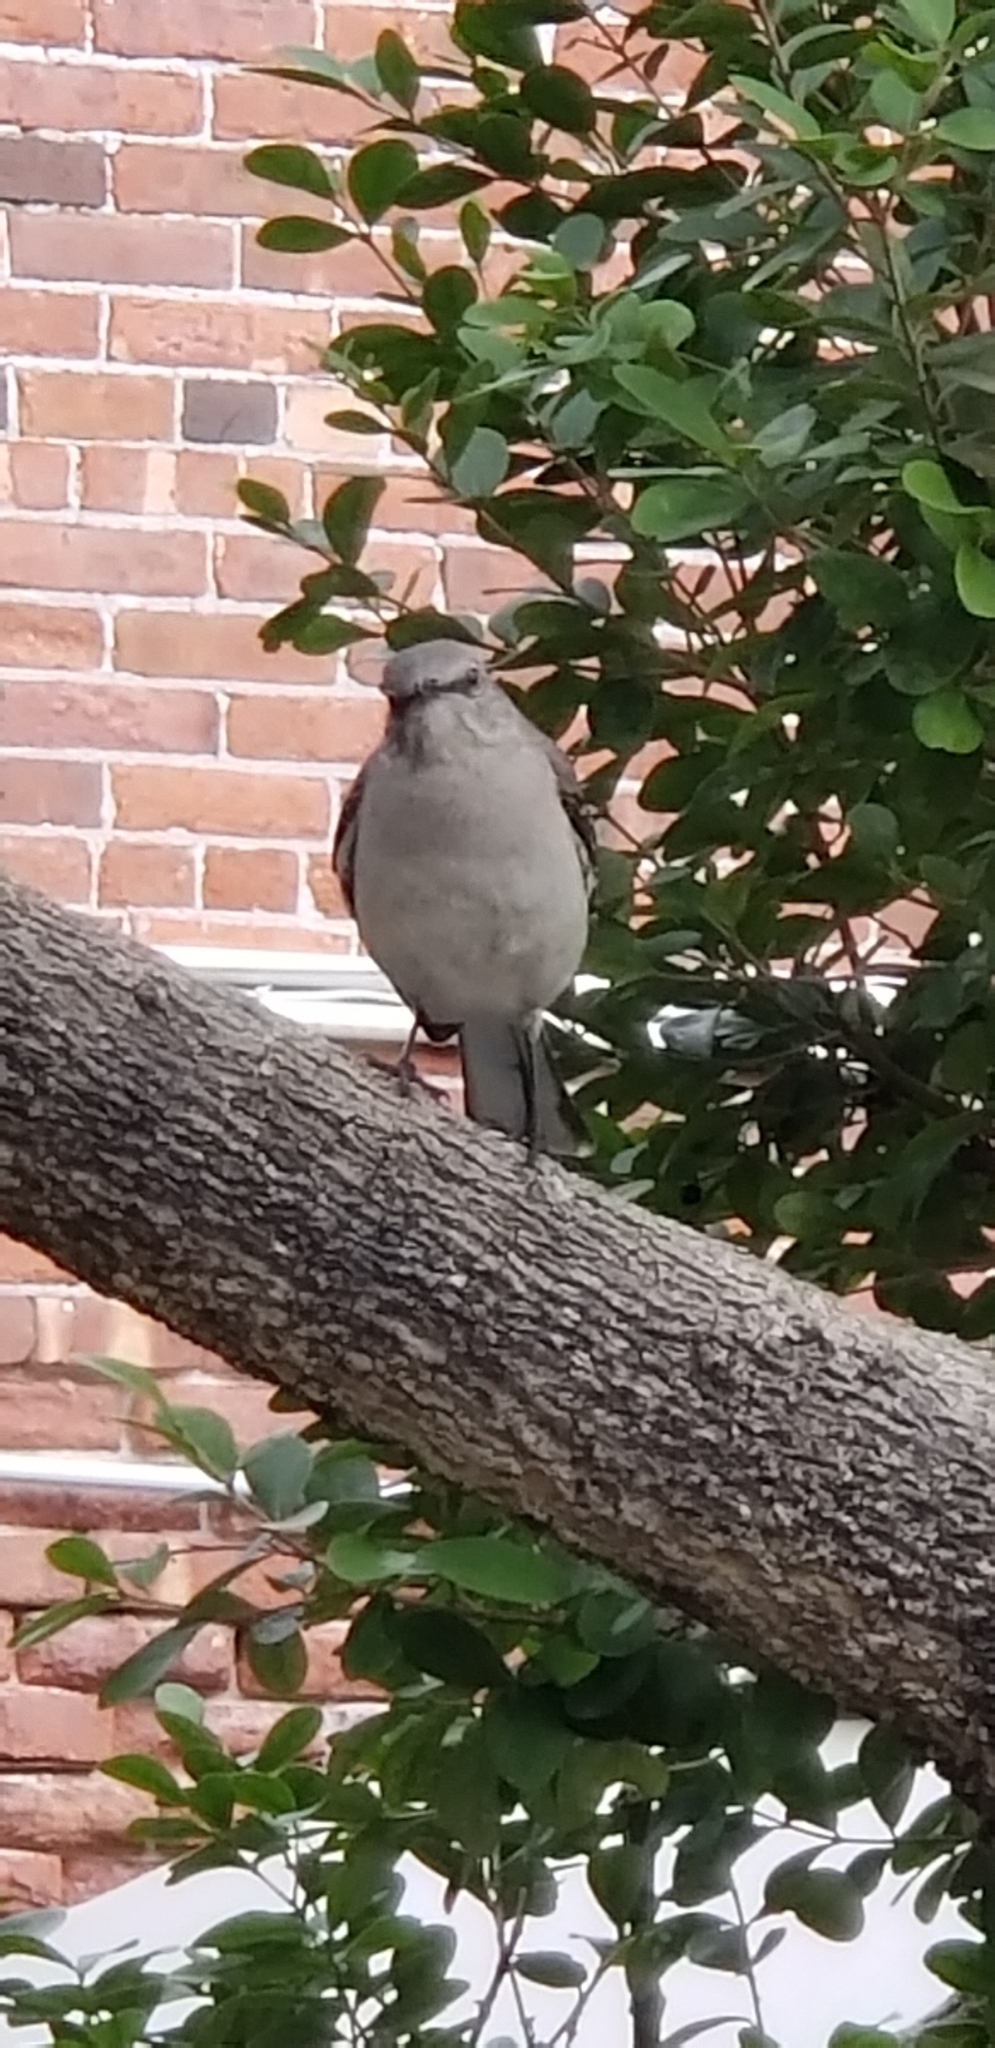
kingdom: Animalia
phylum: Chordata
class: Aves
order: Passeriformes
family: Mimidae
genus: Mimus
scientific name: Mimus polyglottos
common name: Northern mockingbird
